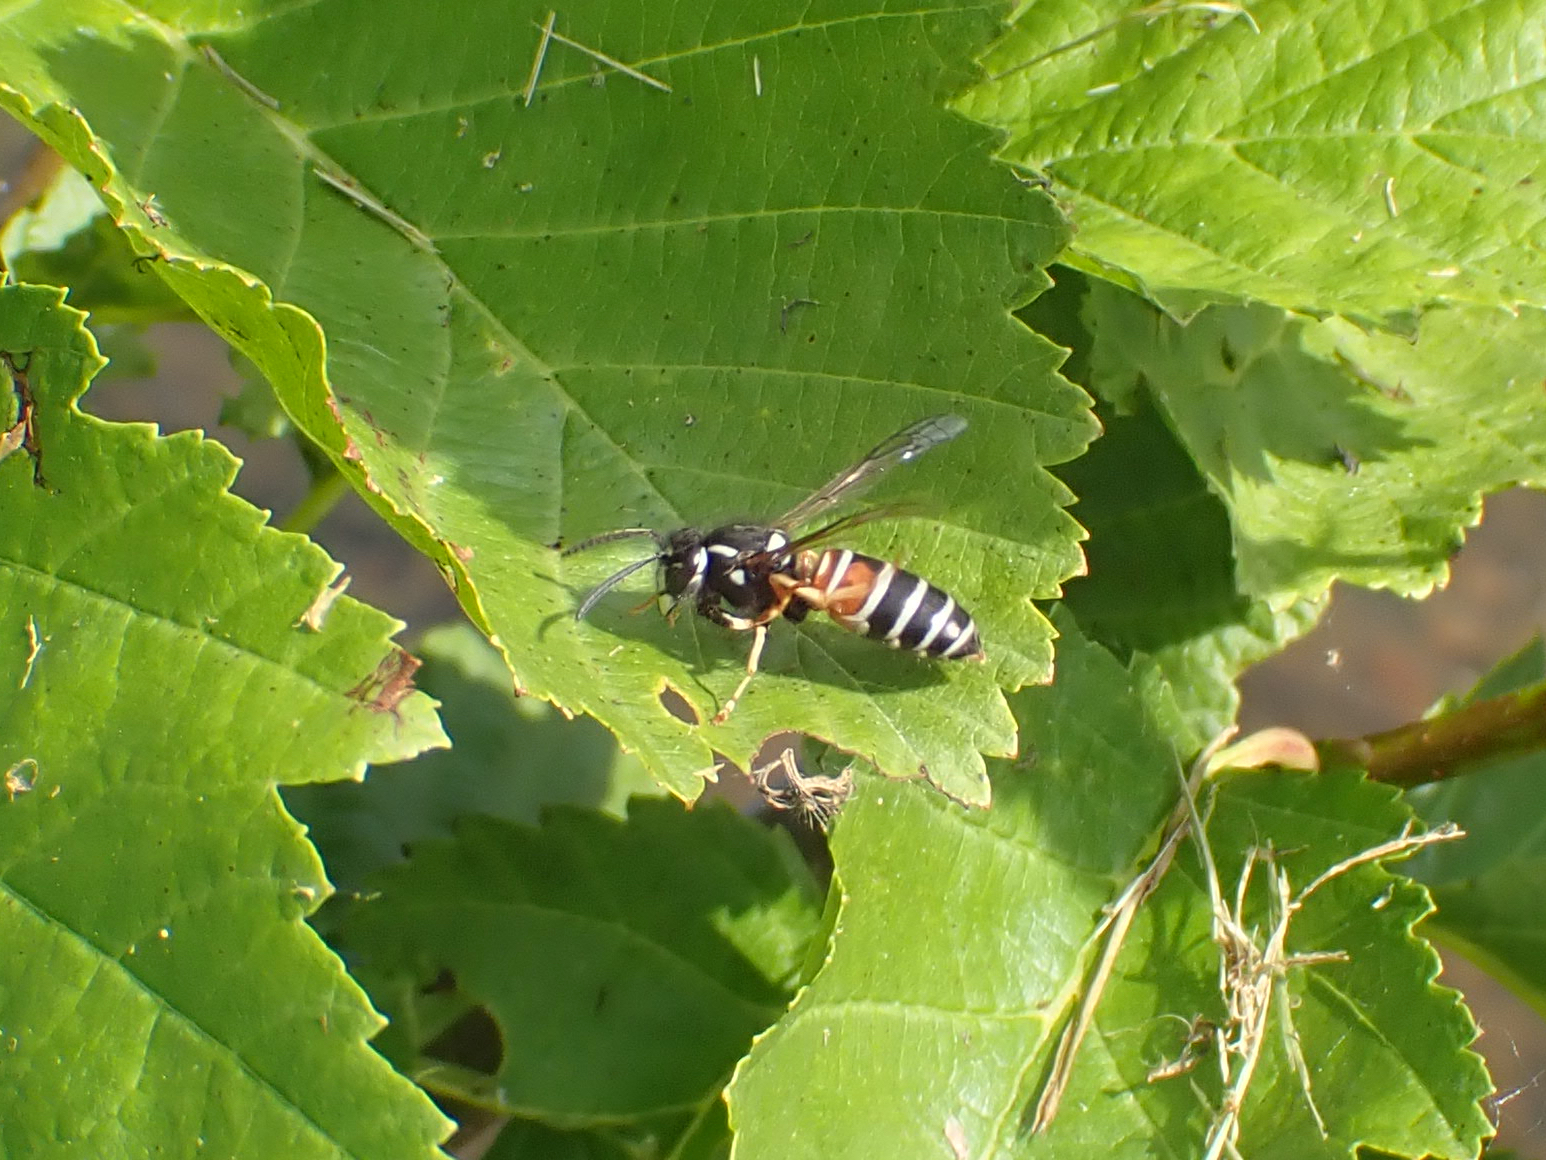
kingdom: Animalia
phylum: Arthropoda
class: Insecta
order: Hymenoptera
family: Vespidae
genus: Vespula
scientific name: Vespula intermedia
